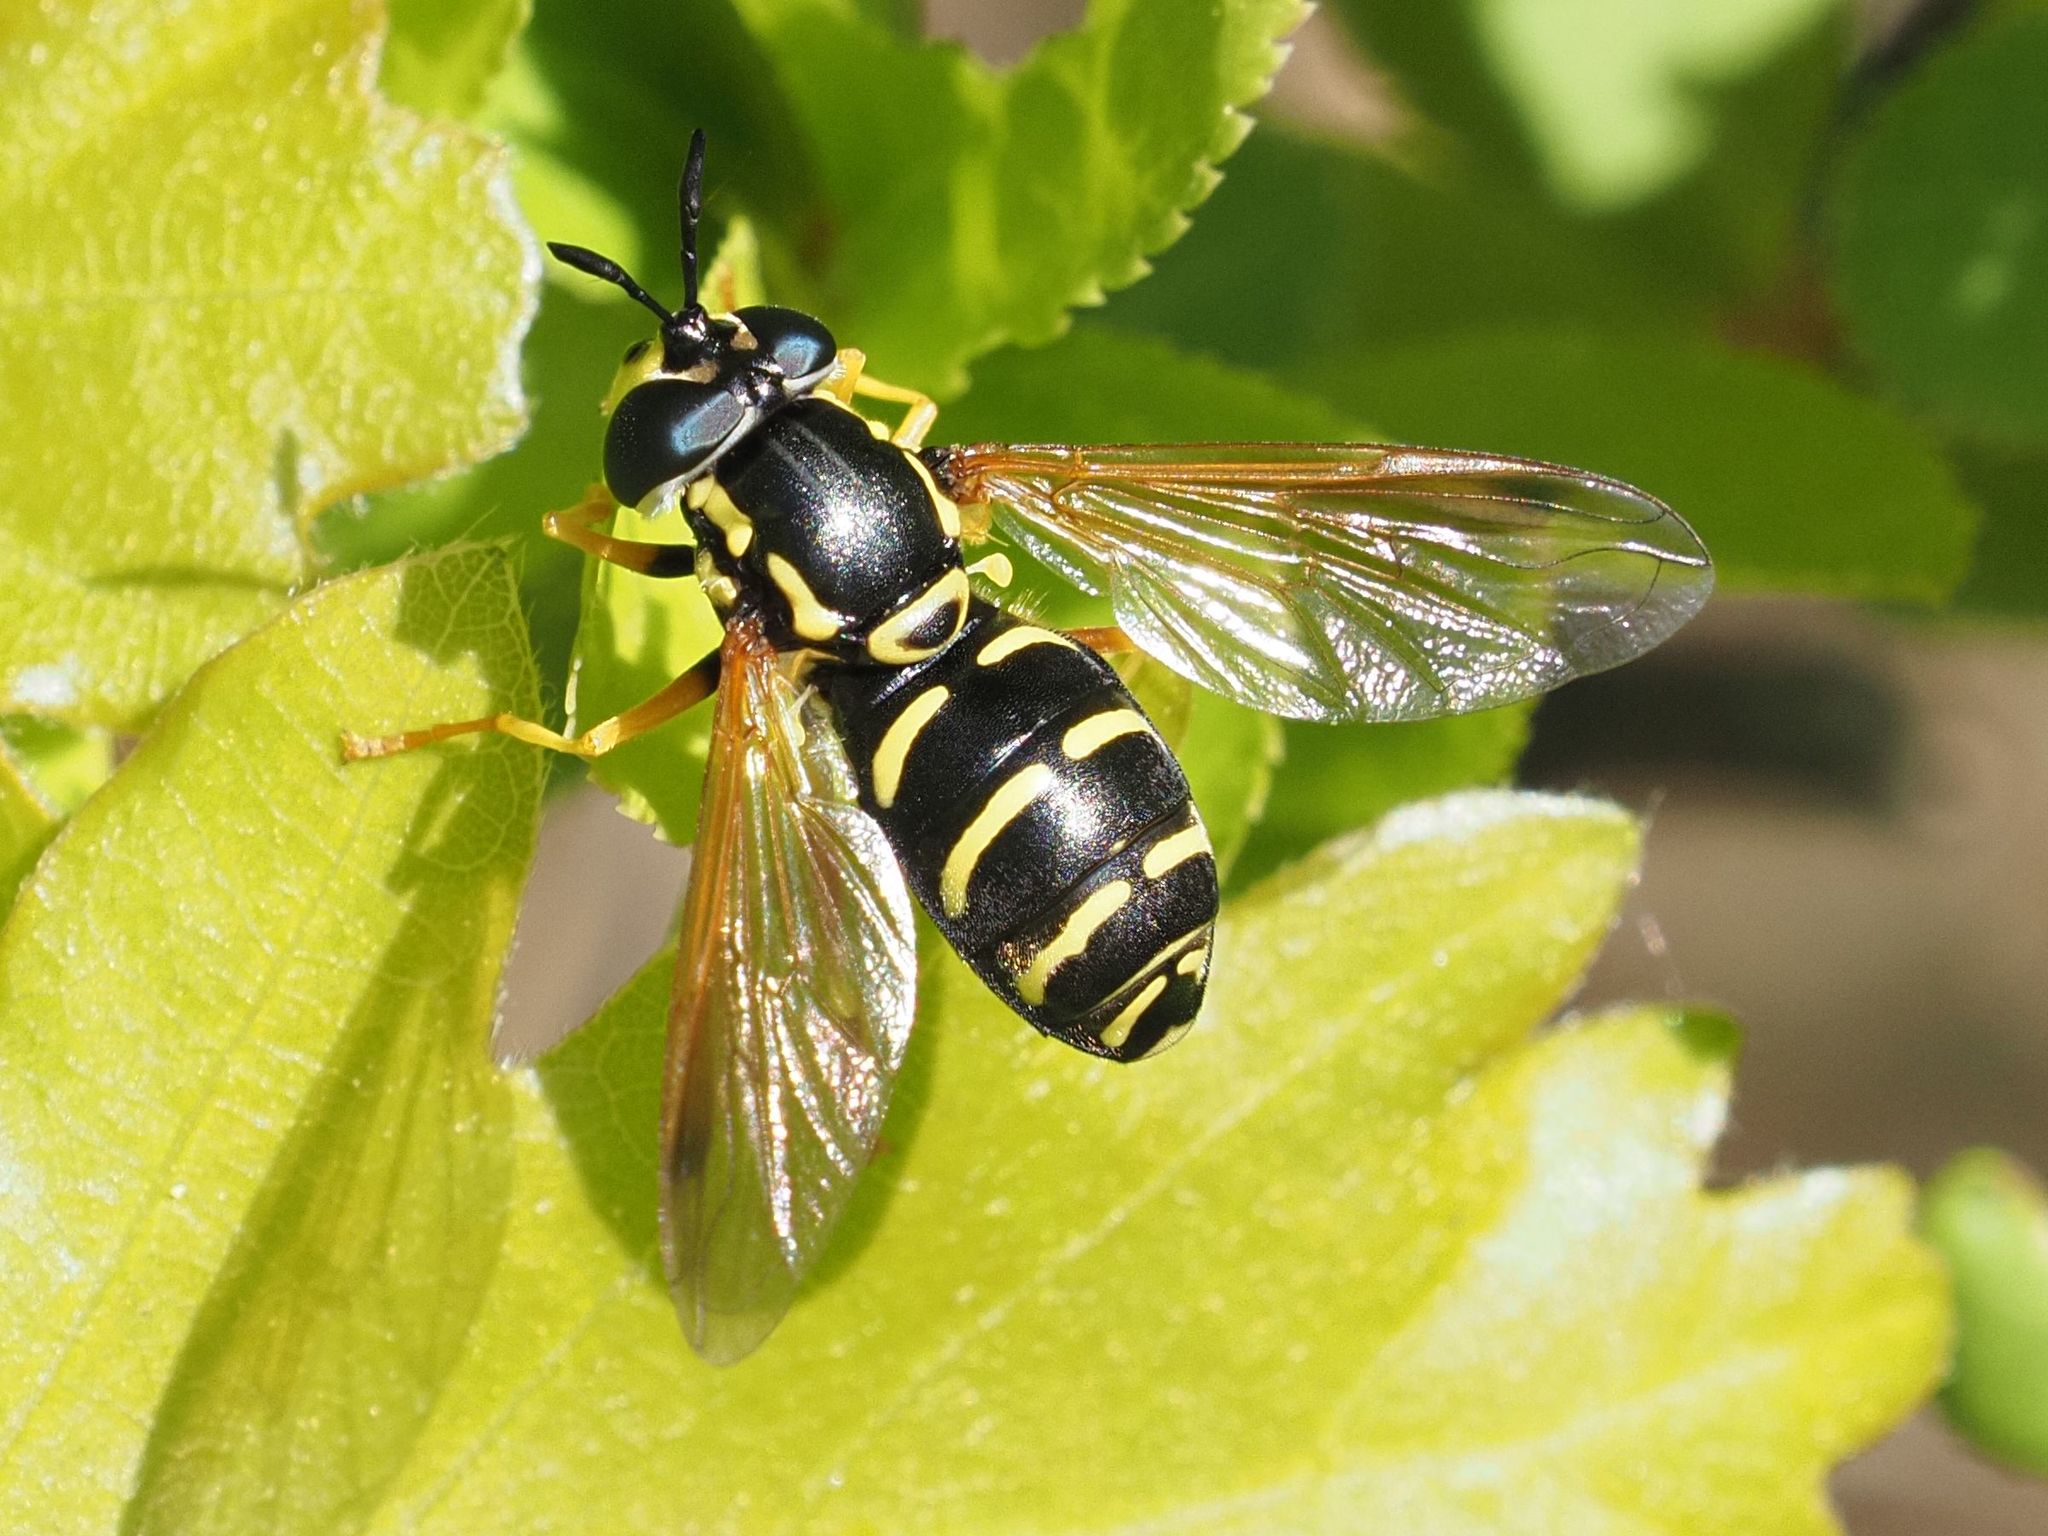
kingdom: Animalia
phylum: Arthropoda
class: Insecta
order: Diptera
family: Syrphidae
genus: Chrysotoxum
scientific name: Chrysotoxum festivum
